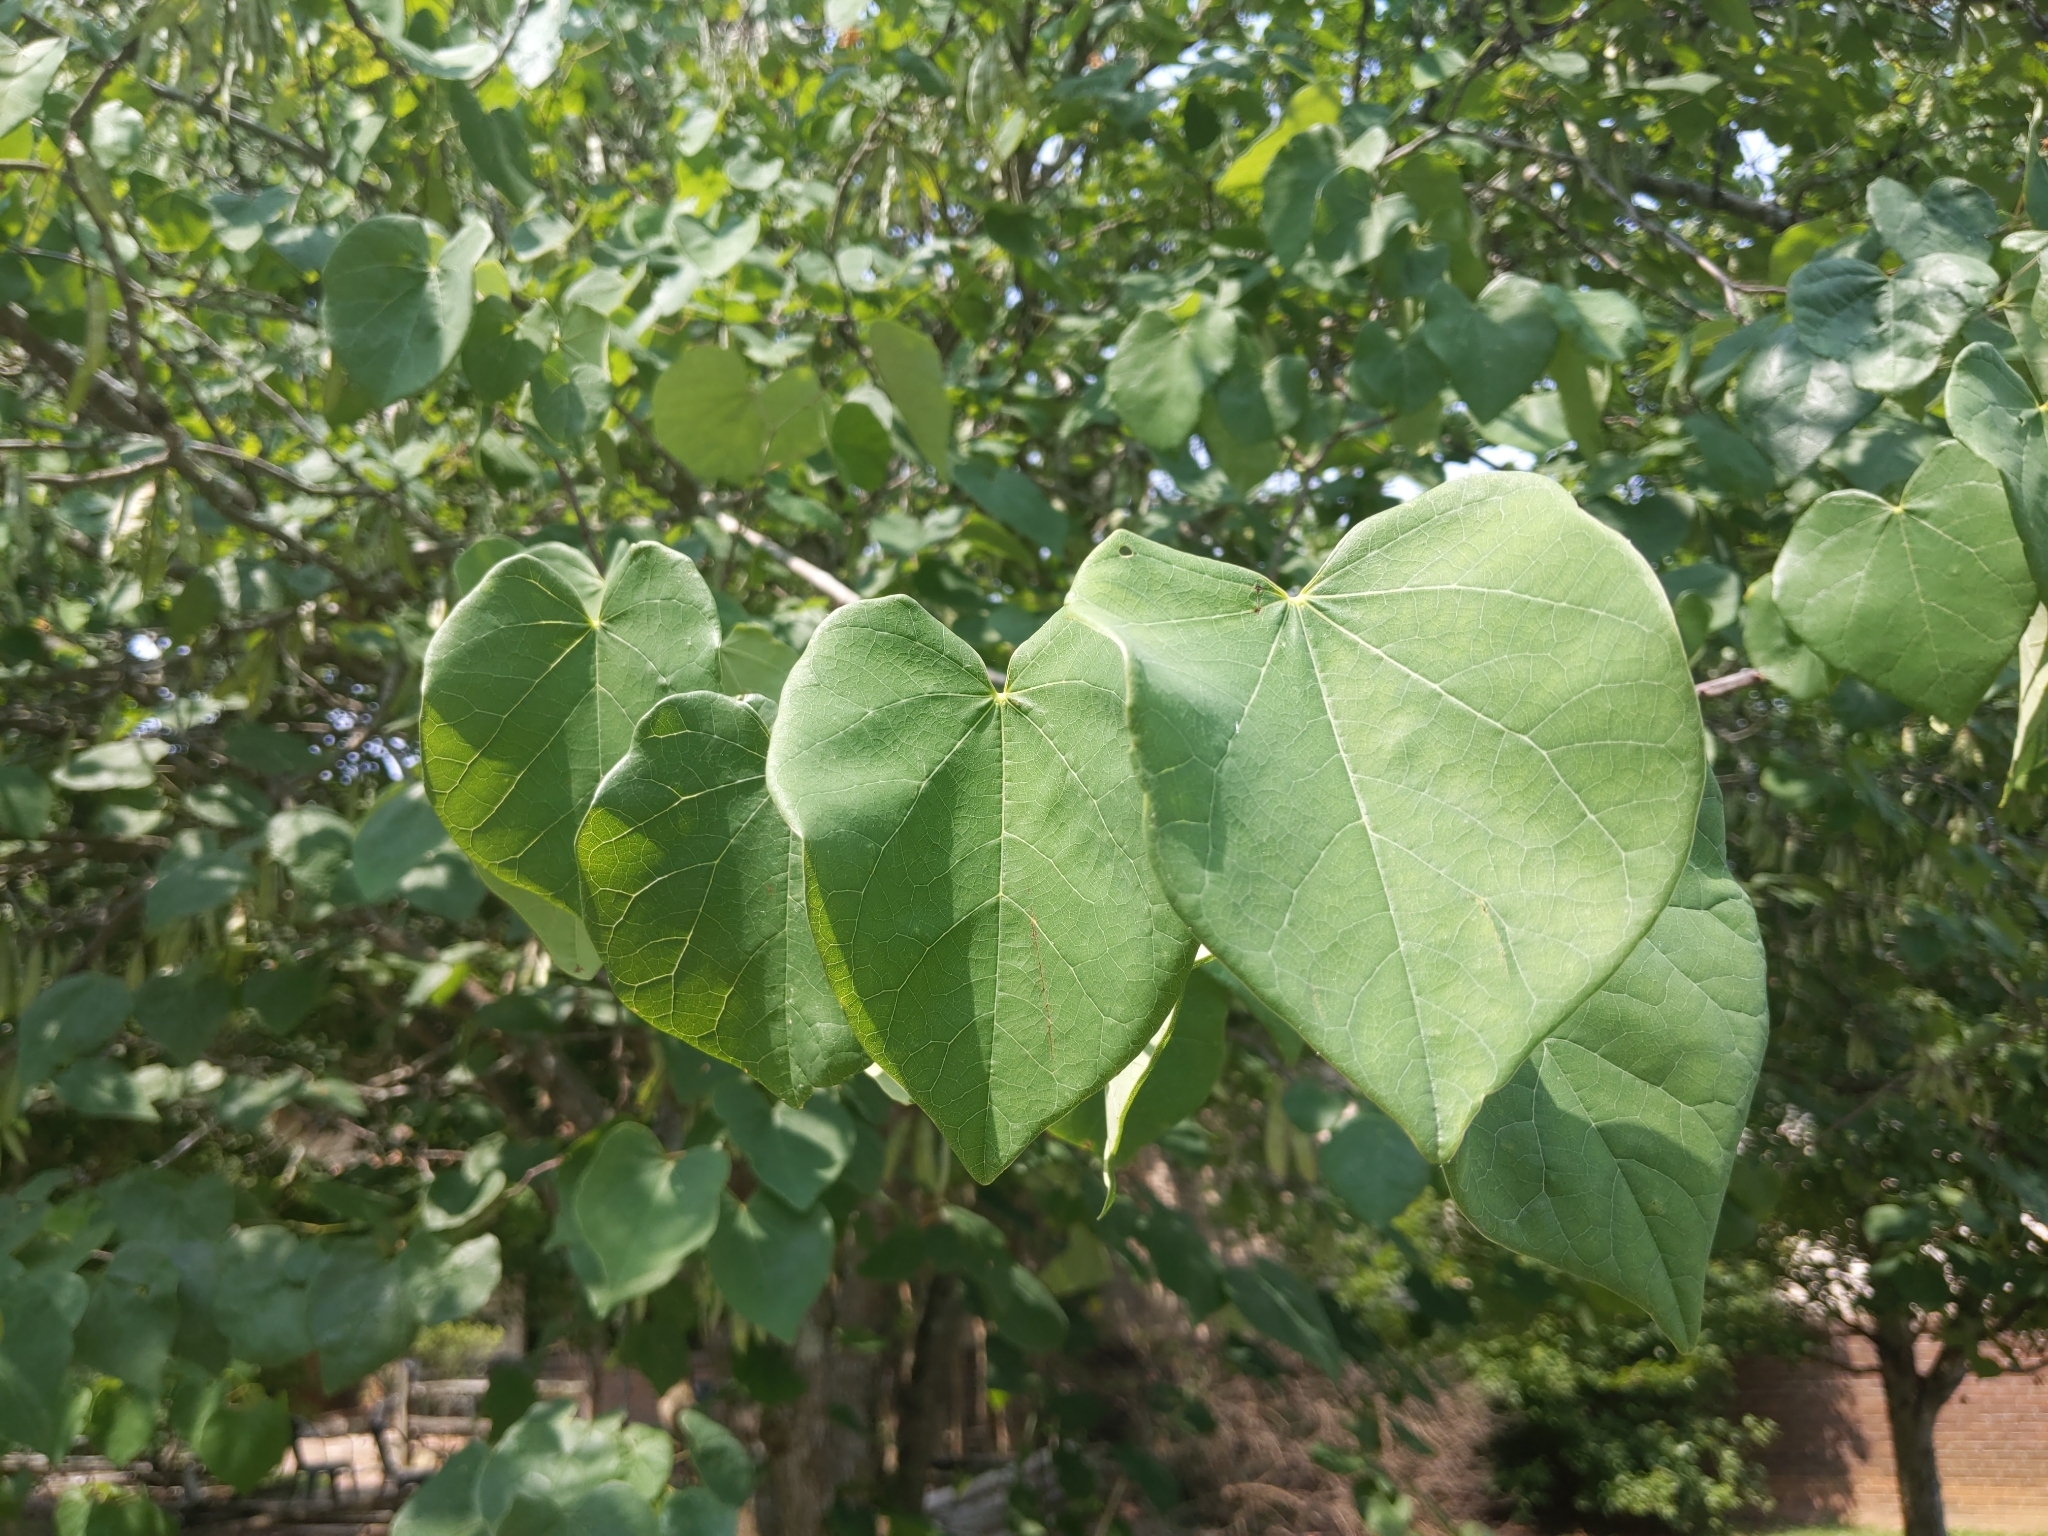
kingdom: Plantae
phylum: Tracheophyta
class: Magnoliopsida
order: Fabales
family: Fabaceae
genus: Cercis
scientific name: Cercis canadensis
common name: Eastern redbud
